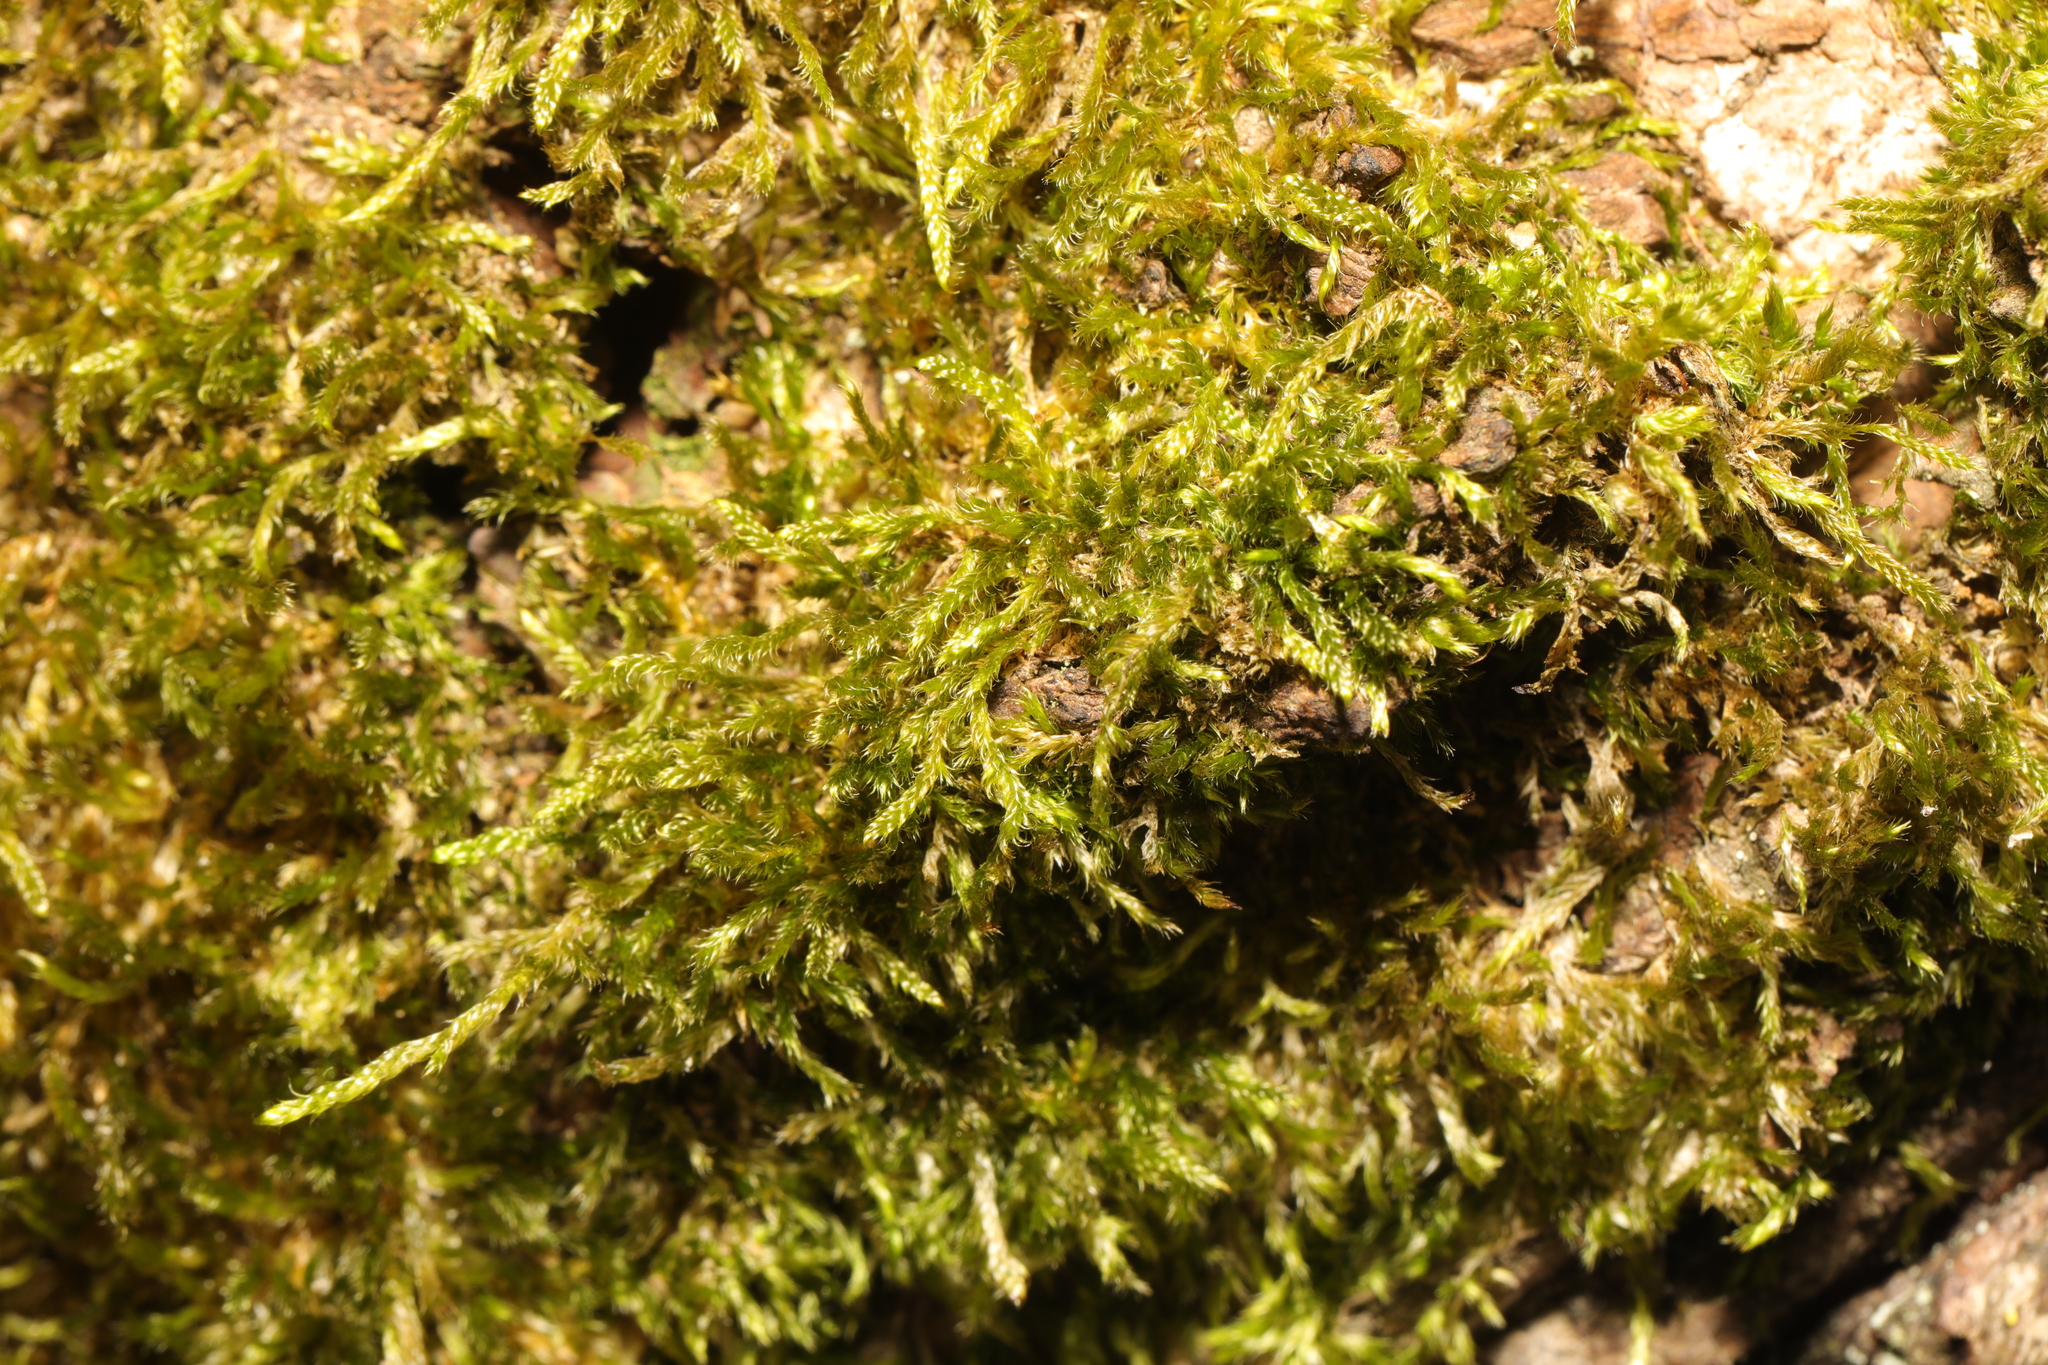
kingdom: Plantae
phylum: Bryophyta
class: Bryopsida
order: Hypnales
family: Hypnaceae
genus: Hypnum
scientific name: Hypnum cupressiforme
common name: Cypress-leaved plait-moss
